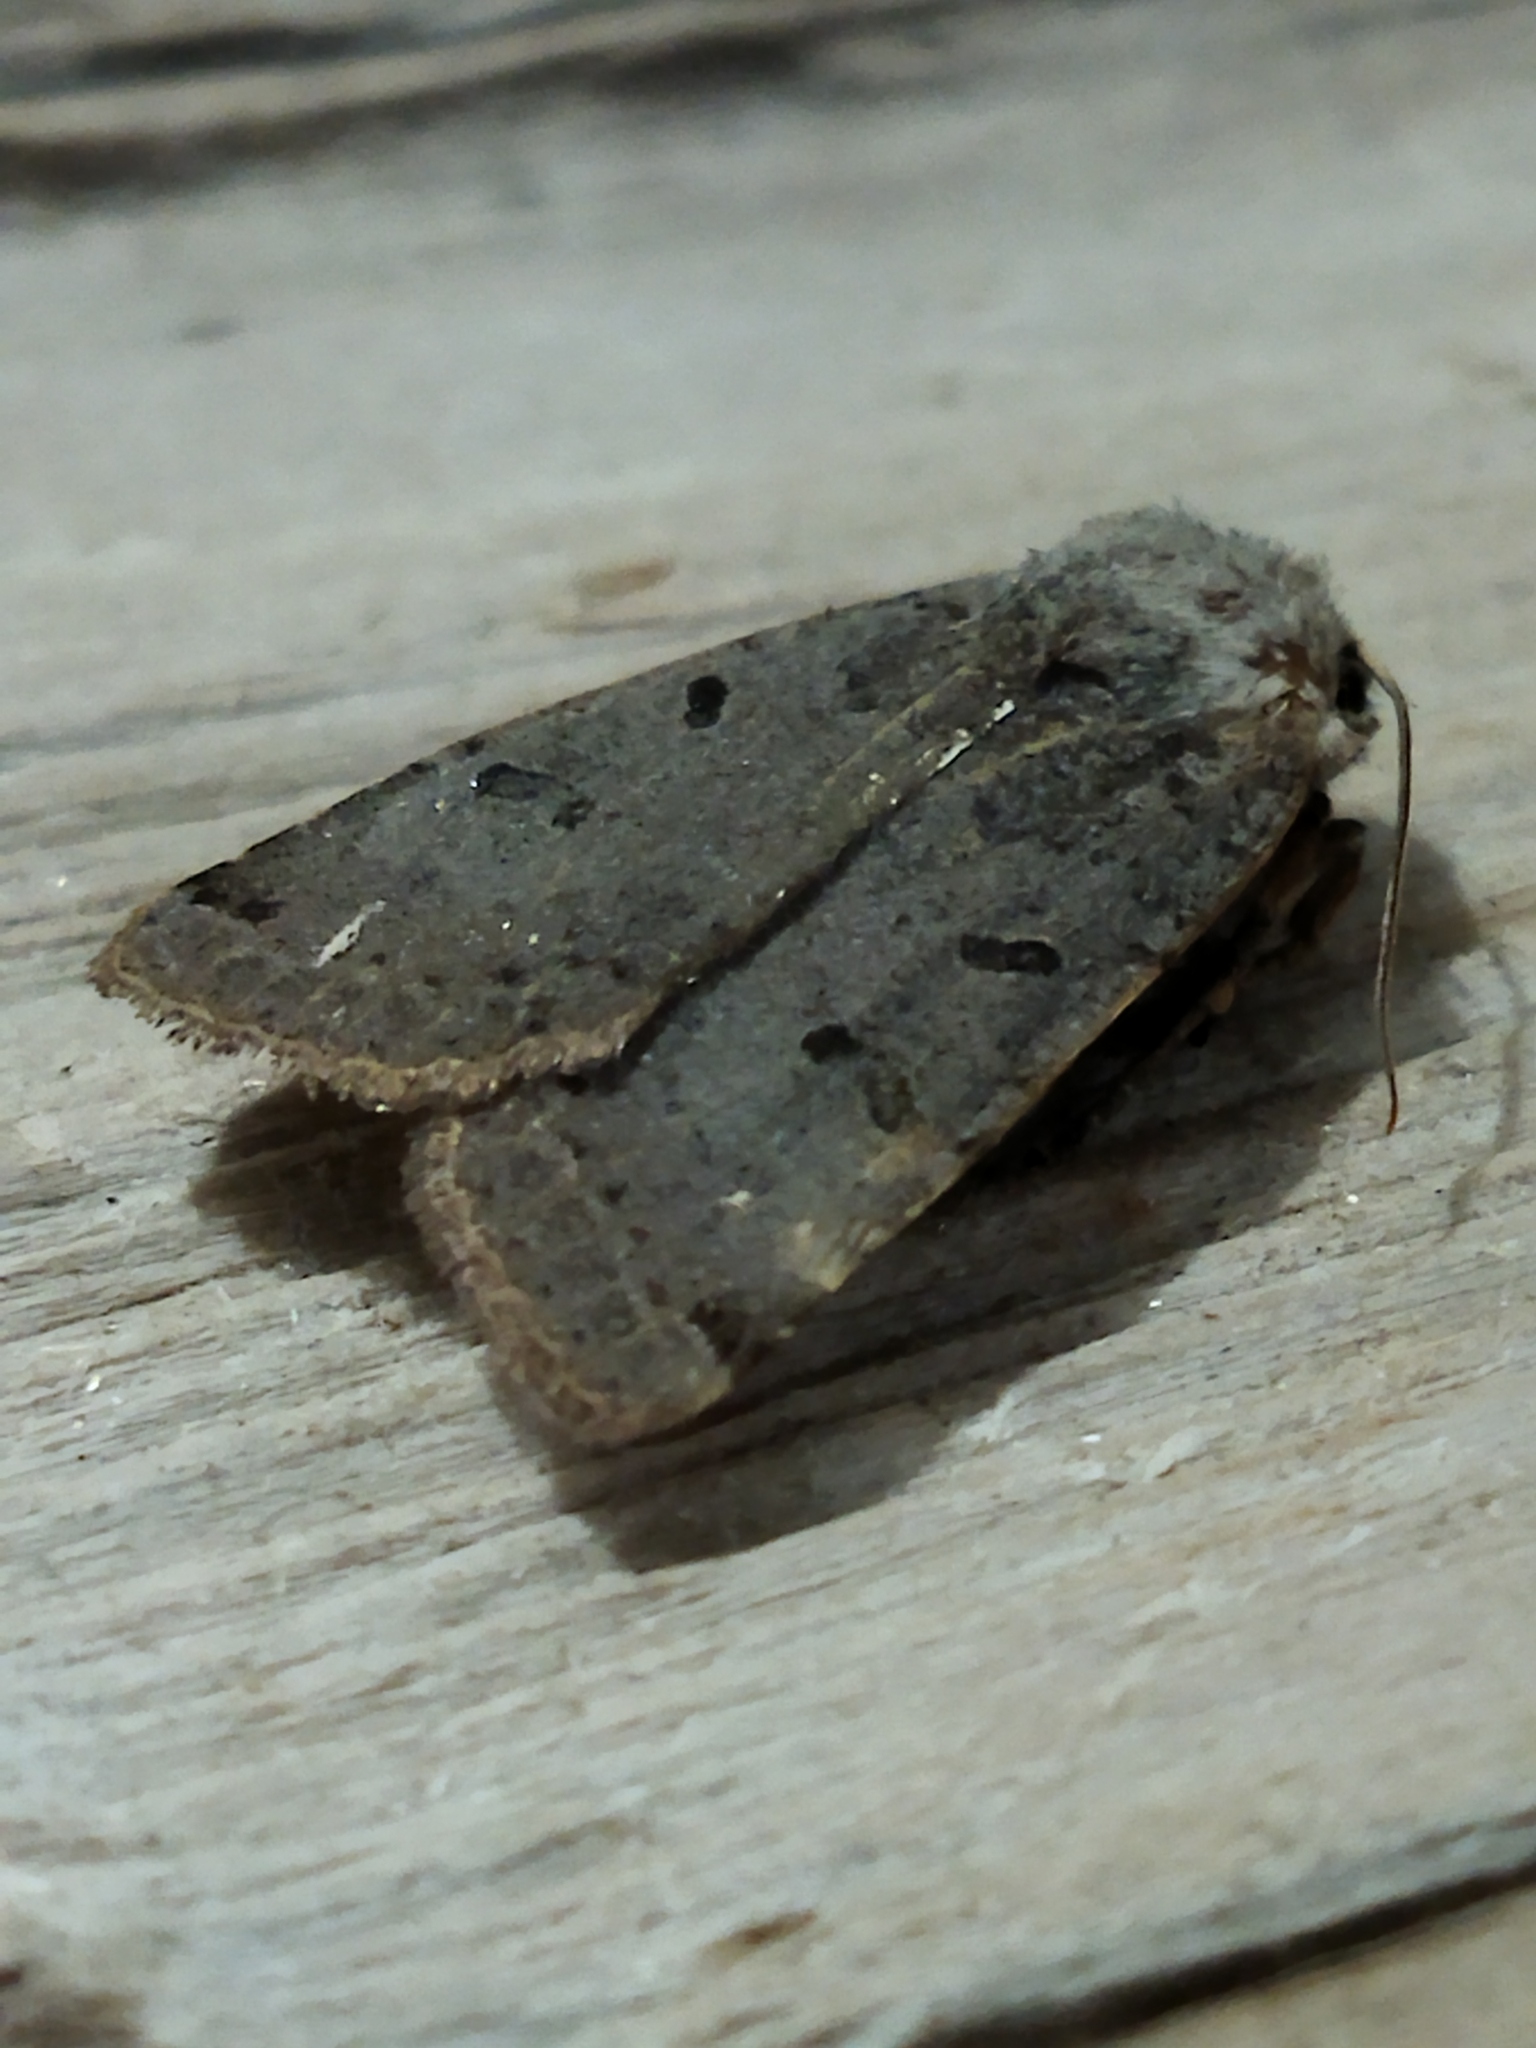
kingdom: Animalia
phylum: Arthropoda
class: Insecta
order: Lepidoptera
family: Noctuidae
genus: Agrochola
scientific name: Agrochola lychnidis
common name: Beaded chestnut
